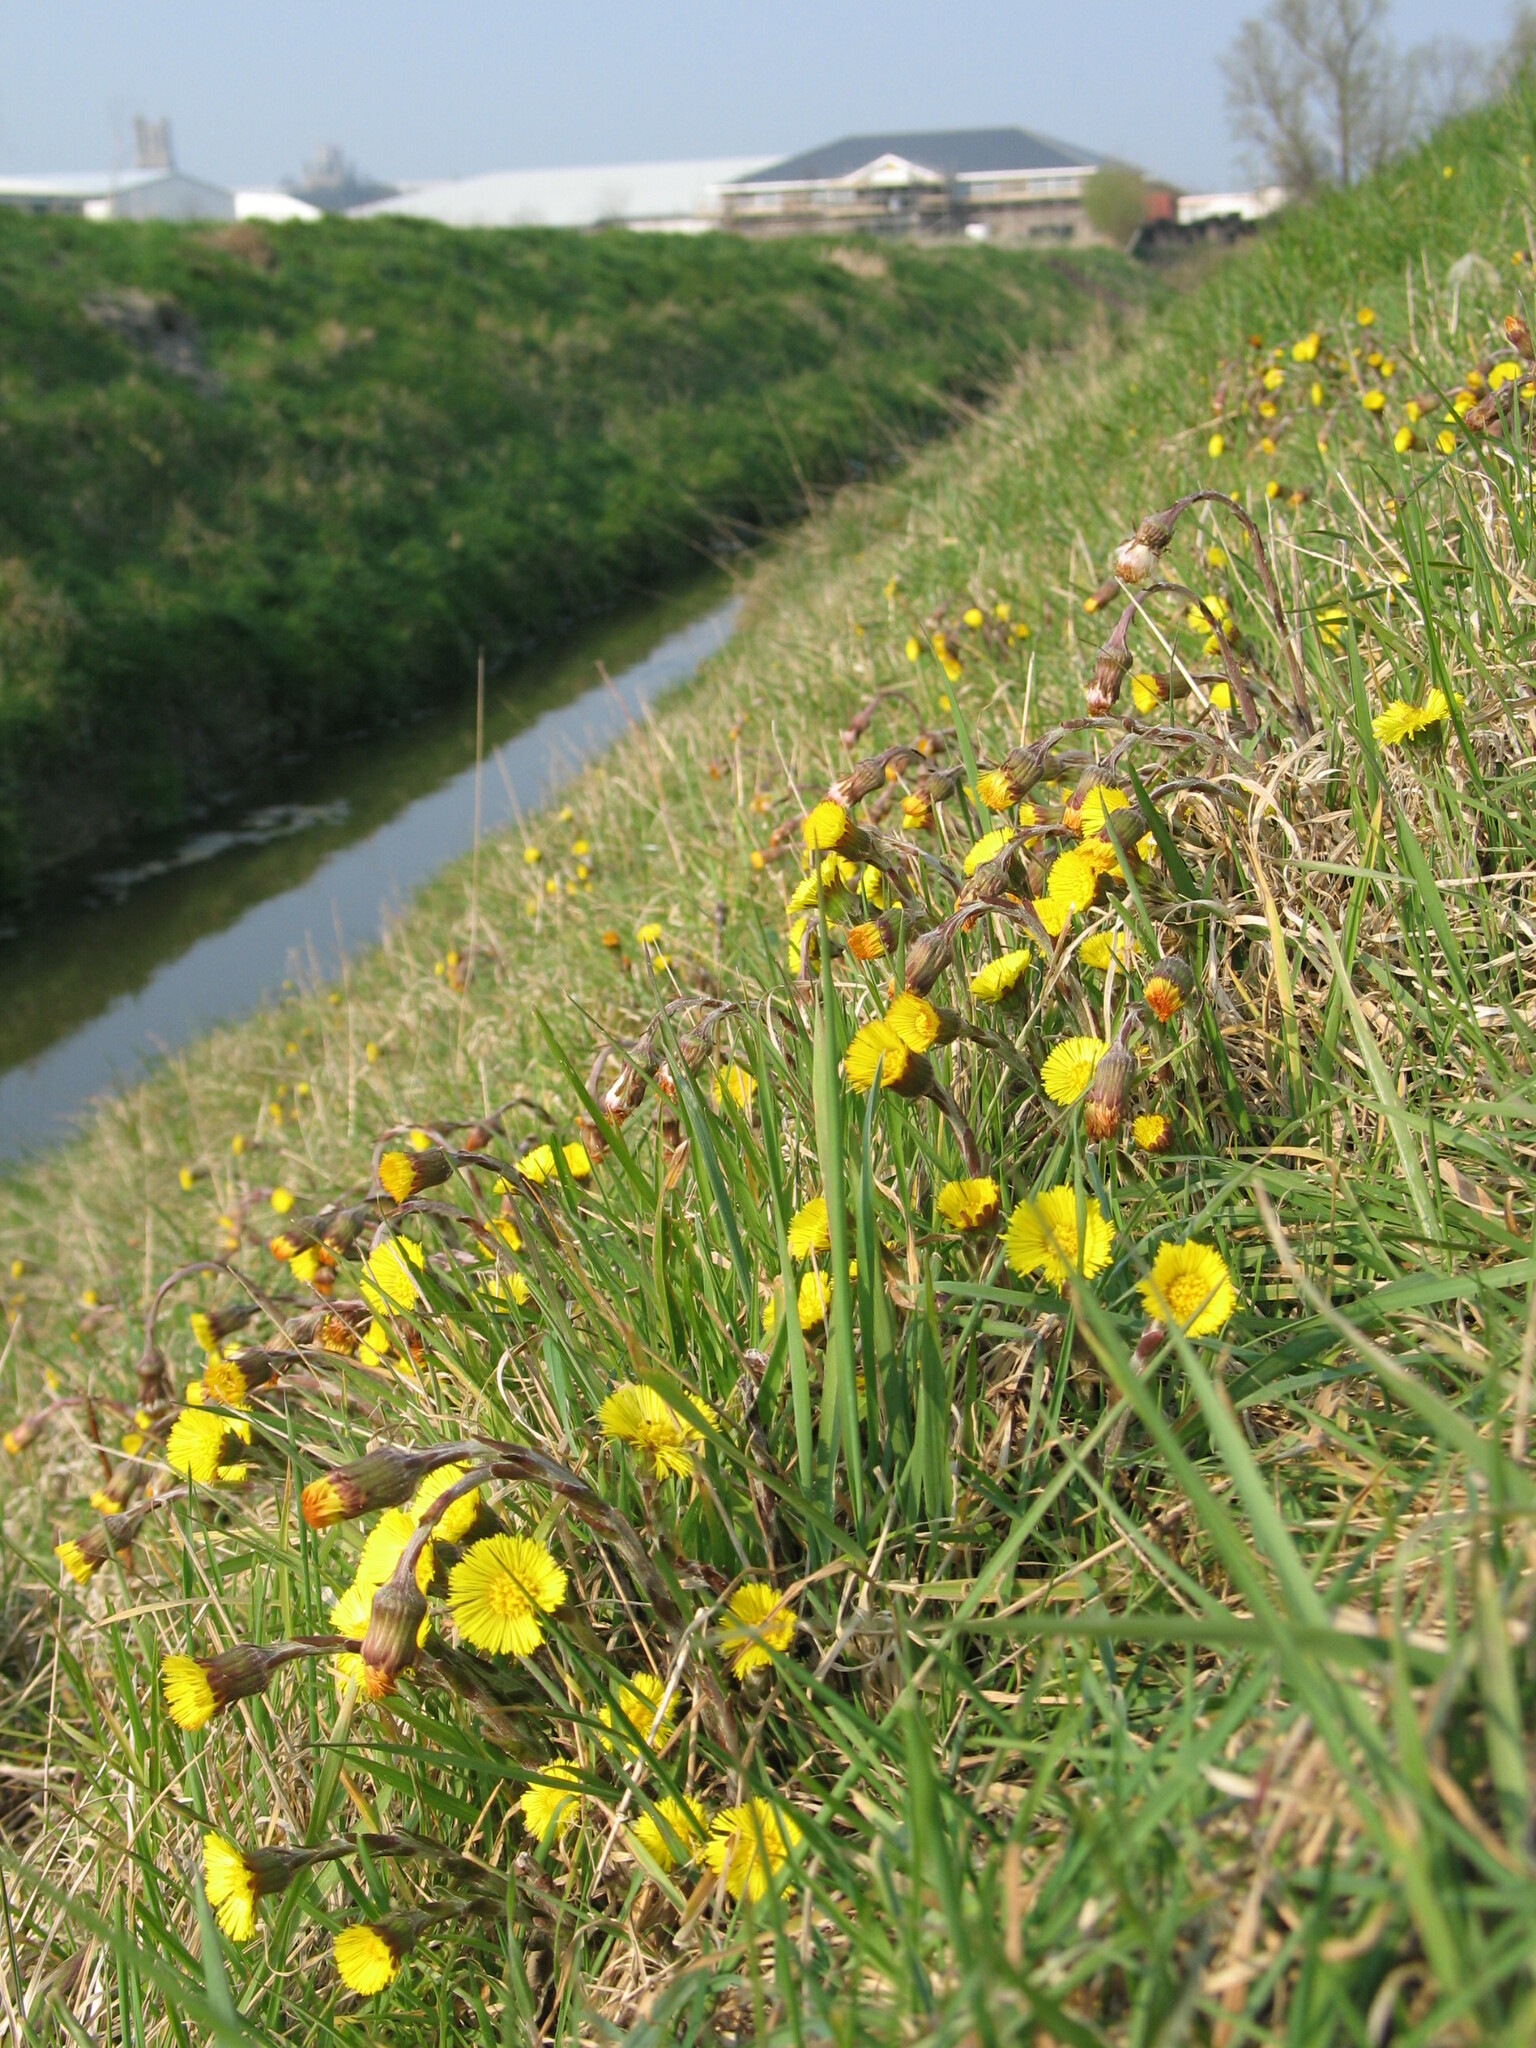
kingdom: Plantae
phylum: Tracheophyta
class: Magnoliopsida
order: Asterales
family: Asteraceae
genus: Tussilago
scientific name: Tussilago farfara
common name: Coltsfoot
